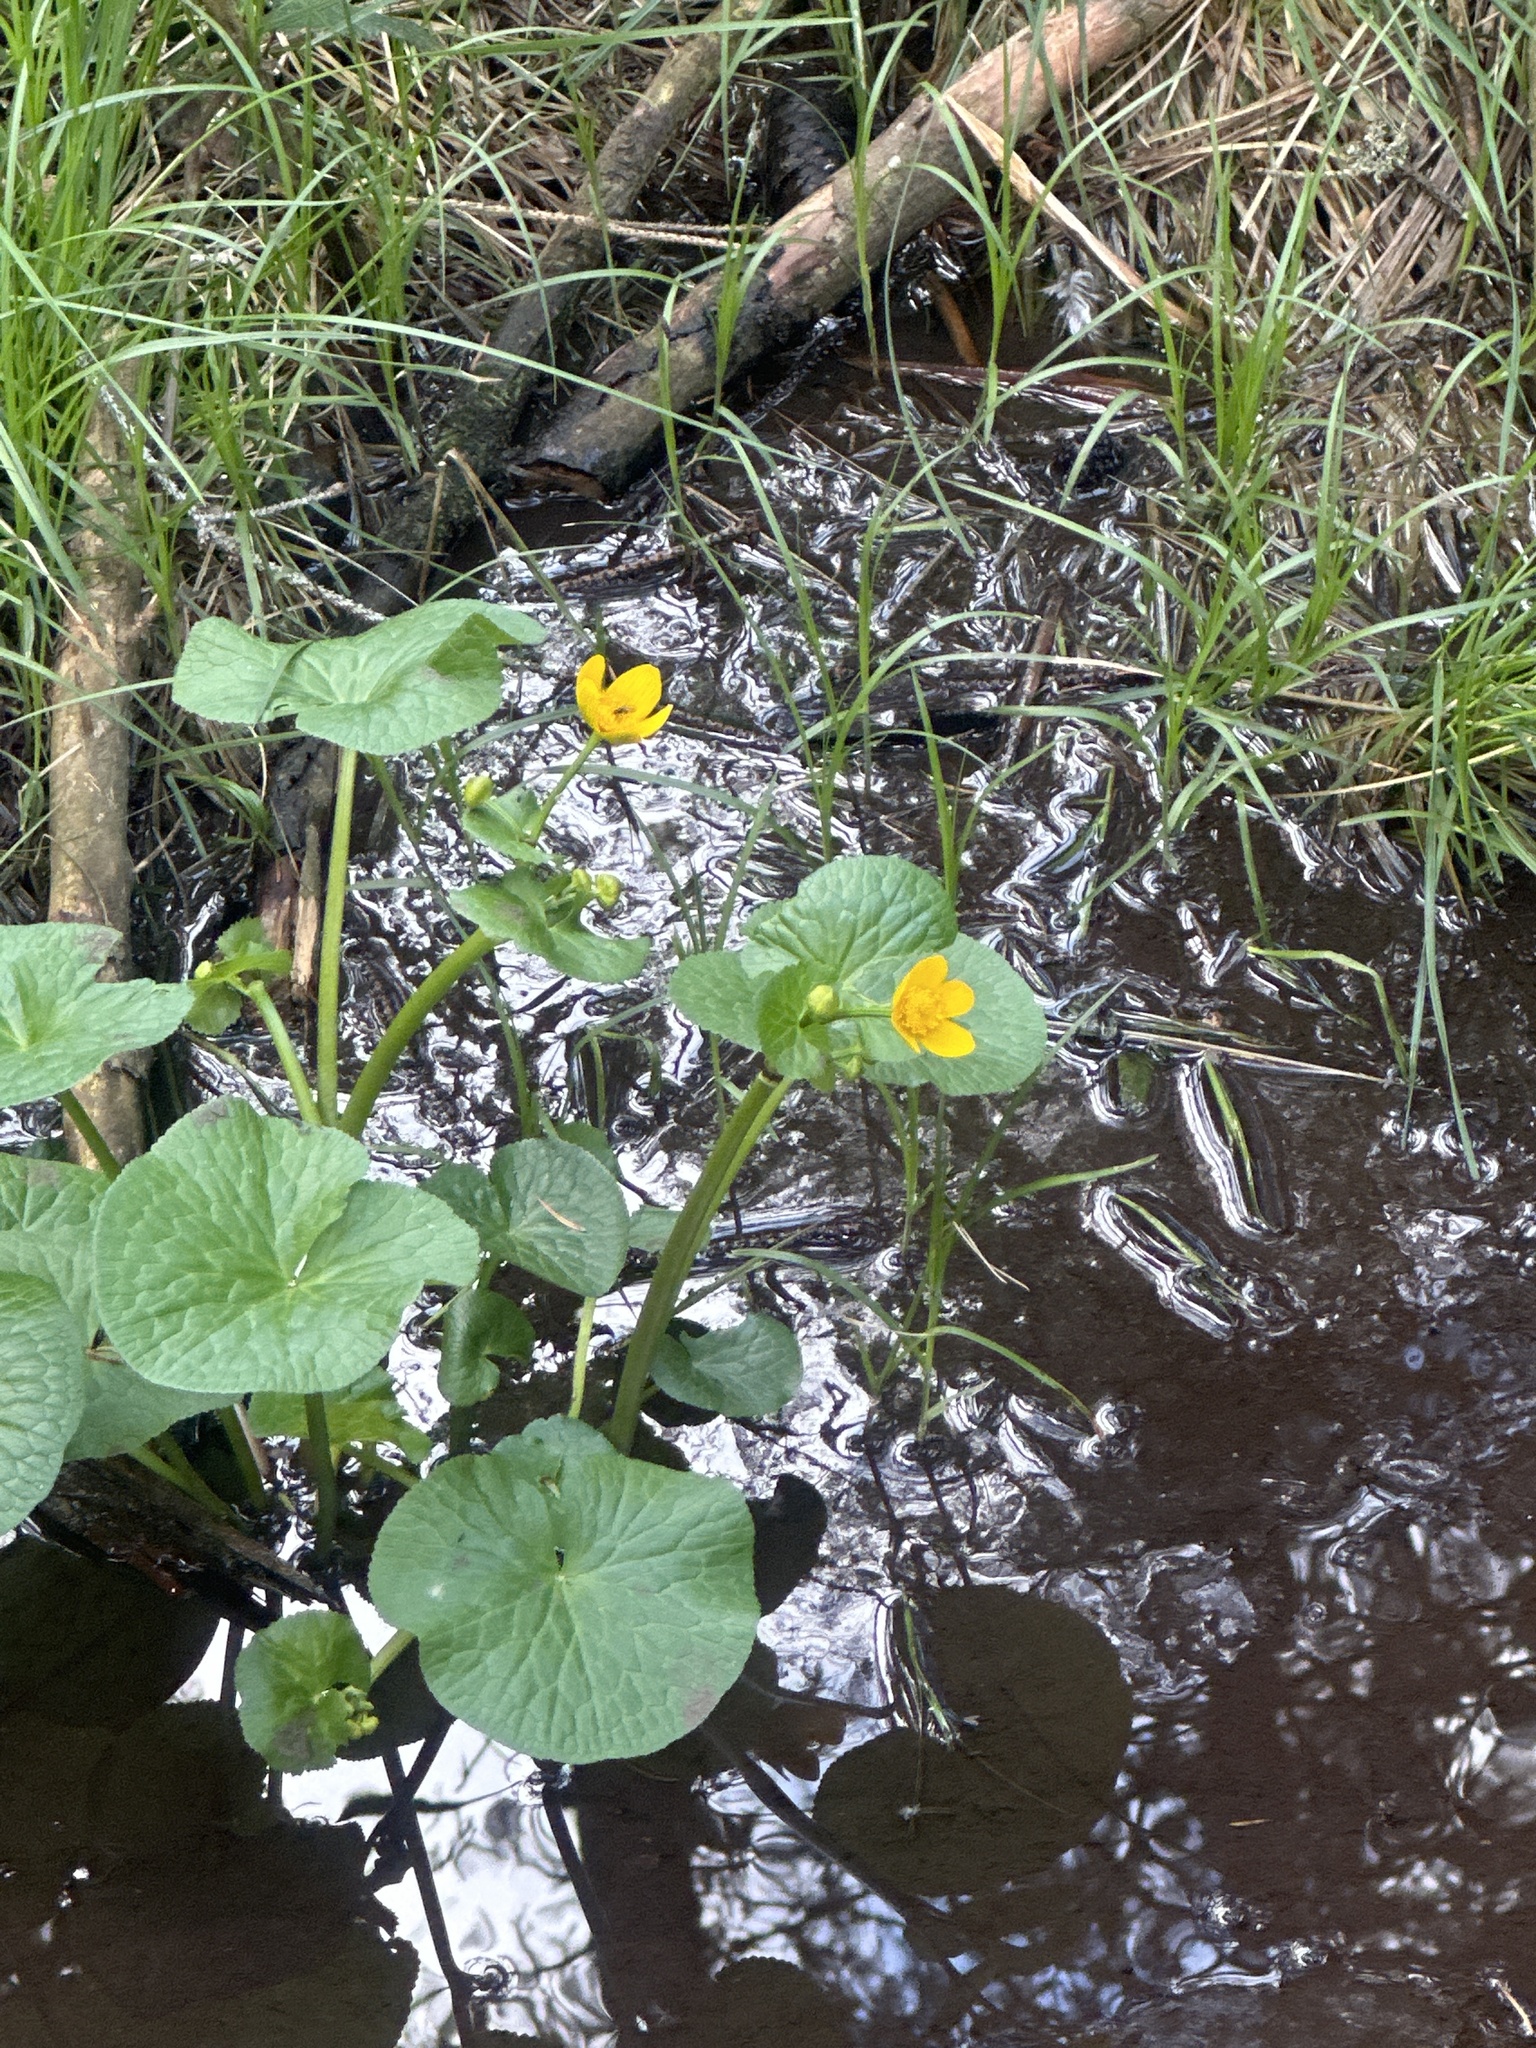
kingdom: Plantae
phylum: Tracheophyta
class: Magnoliopsida
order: Ranunculales
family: Ranunculaceae
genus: Caltha
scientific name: Caltha palustris
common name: Marsh marigold
